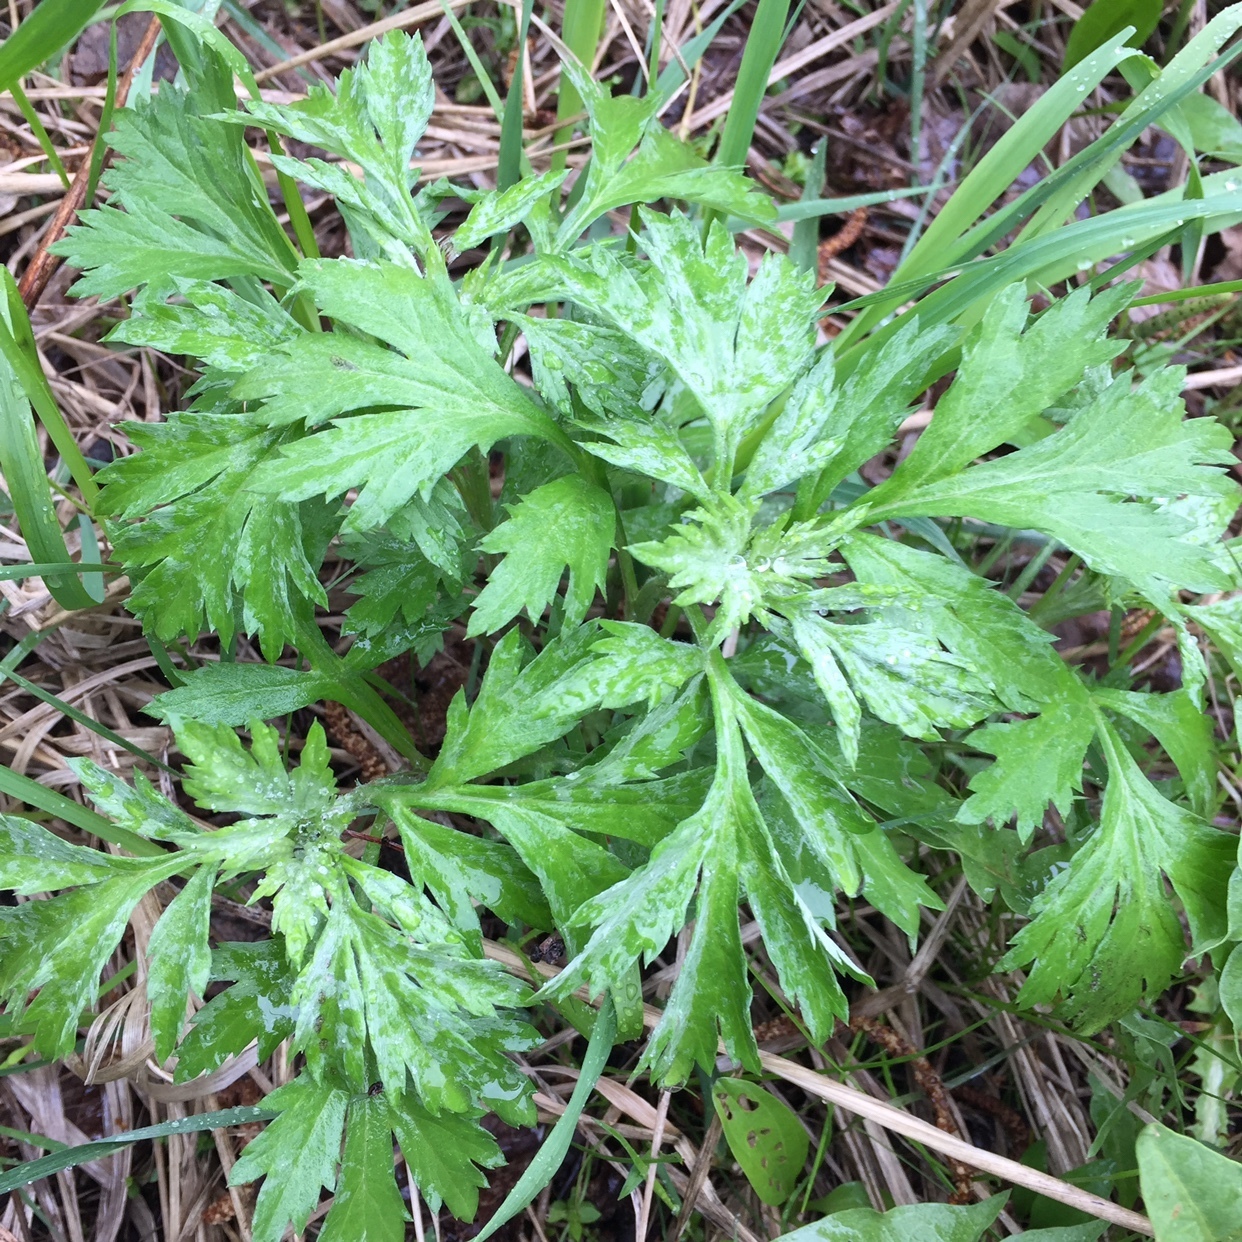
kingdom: Plantae
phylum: Tracheophyta
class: Magnoliopsida
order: Asterales
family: Asteraceae
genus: Artemisia
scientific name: Artemisia vulgaris
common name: Mugwort
